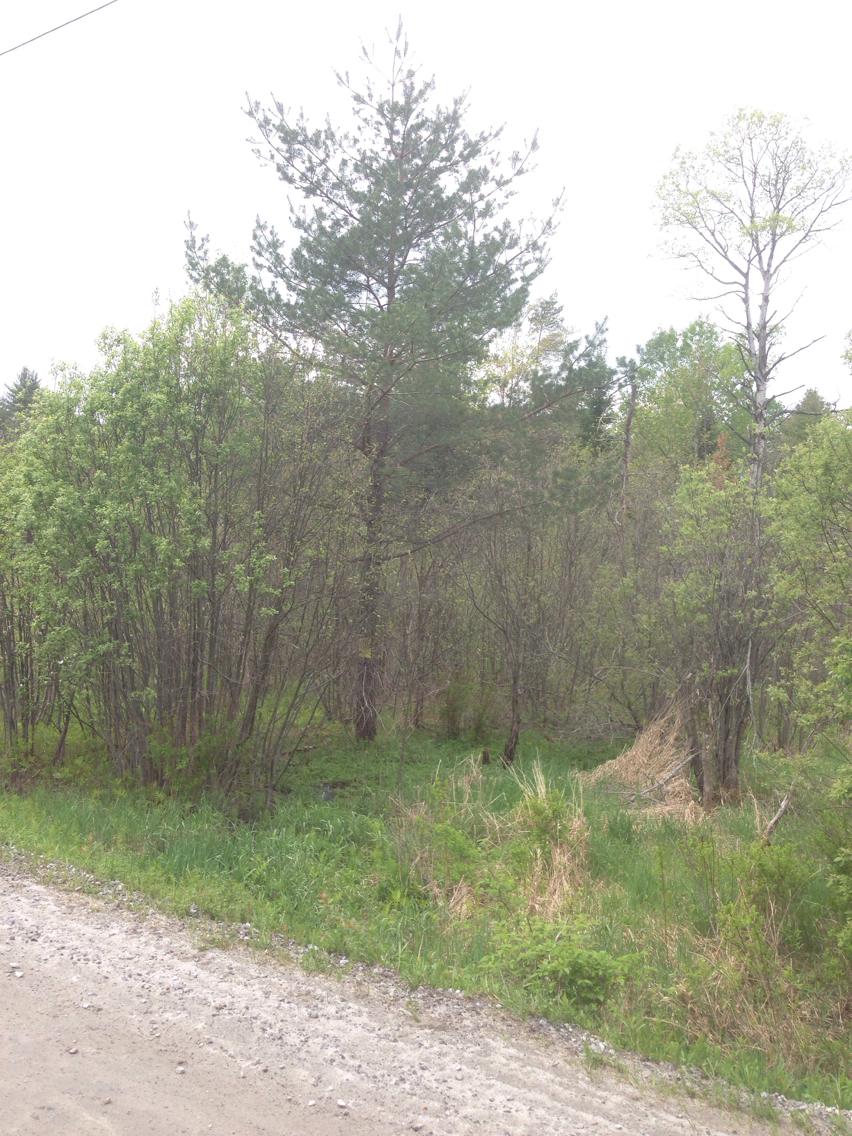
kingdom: Plantae
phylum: Tracheophyta
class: Pinopsida
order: Pinales
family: Pinaceae
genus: Pinus
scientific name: Pinus sylvestris
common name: Scots pine
